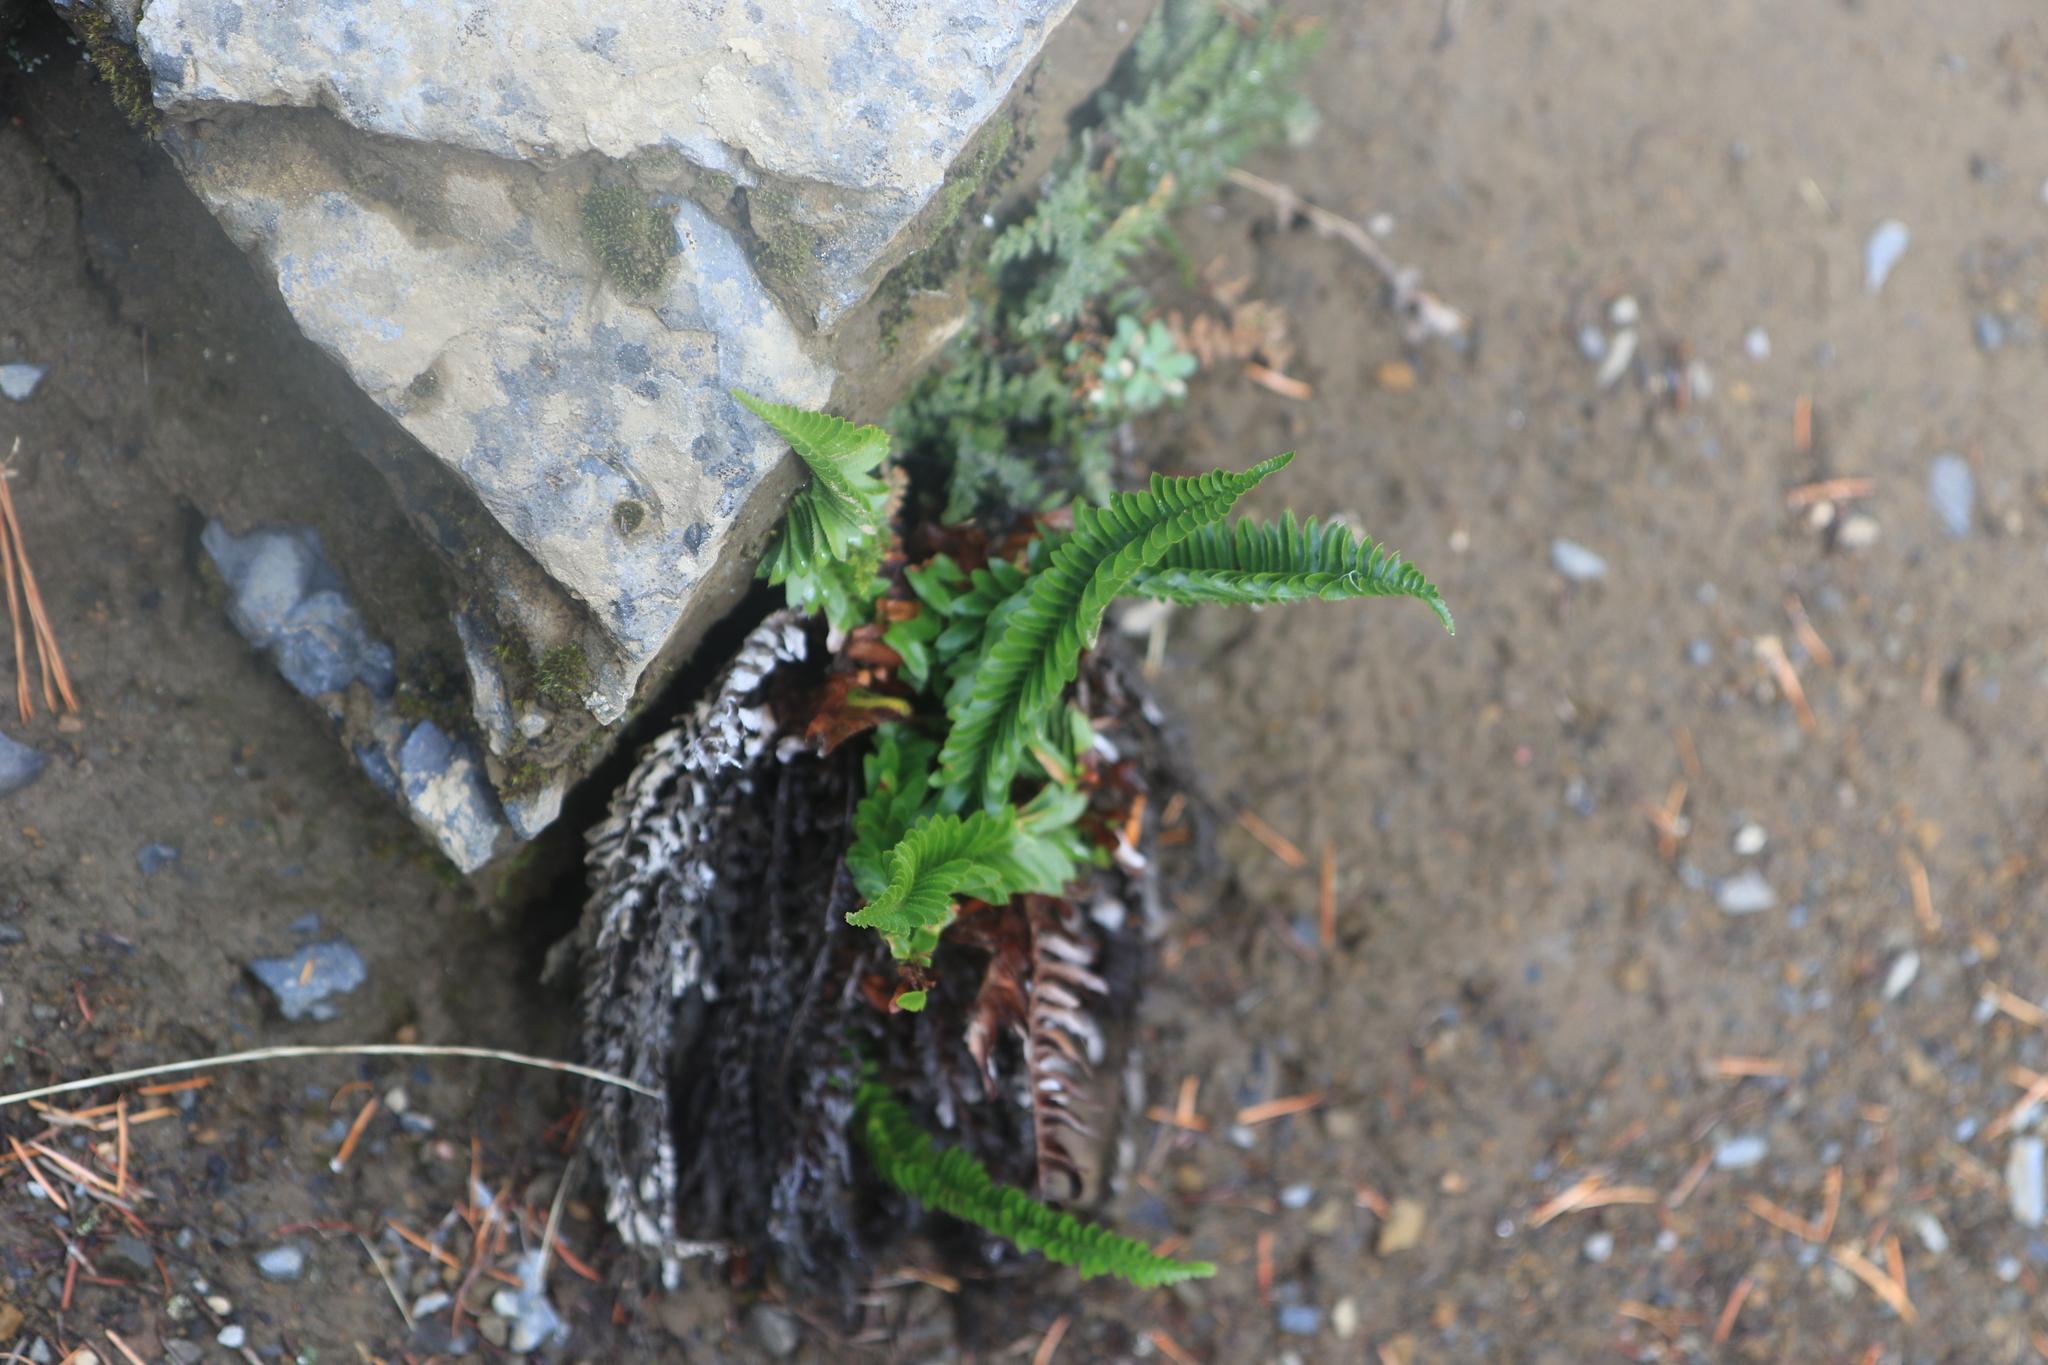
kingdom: Plantae
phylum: Tracheophyta
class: Polypodiopsida
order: Polypodiales
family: Dryopteridaceae
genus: Polystichum
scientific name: Polystichum imbricans
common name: Dwarf western sword fern
